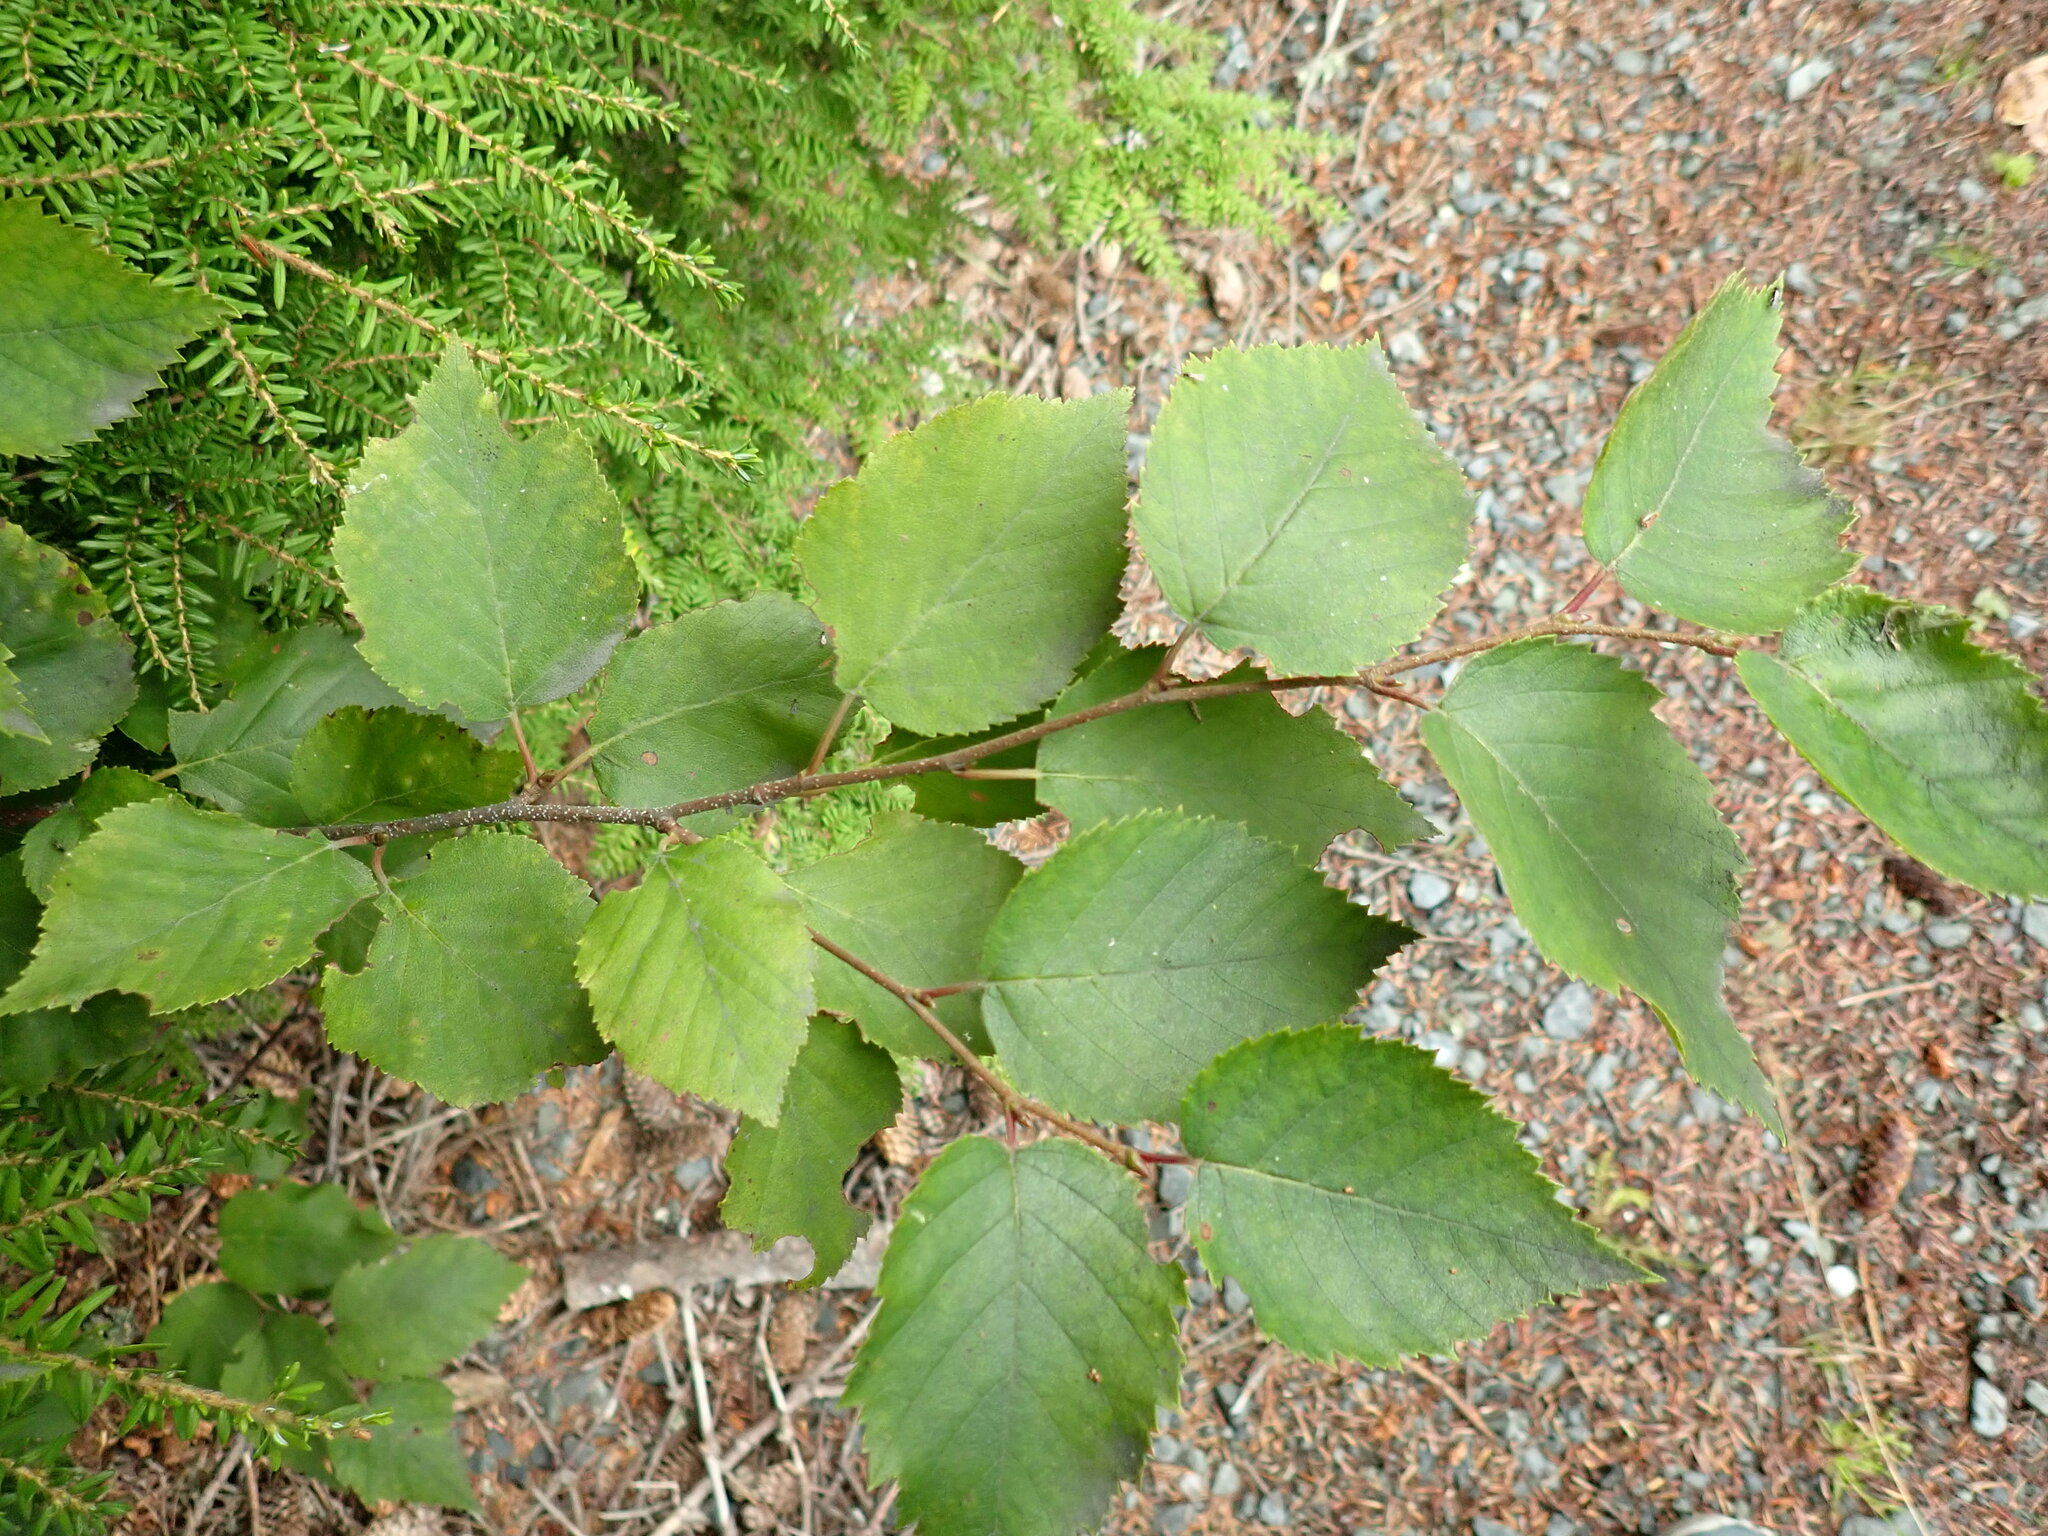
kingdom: Plantae
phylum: Tracheophyta
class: Magnoliopsida
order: Fagales
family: Betulaceae
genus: Alnus
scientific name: Alnus alnobetula
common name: Green alder
